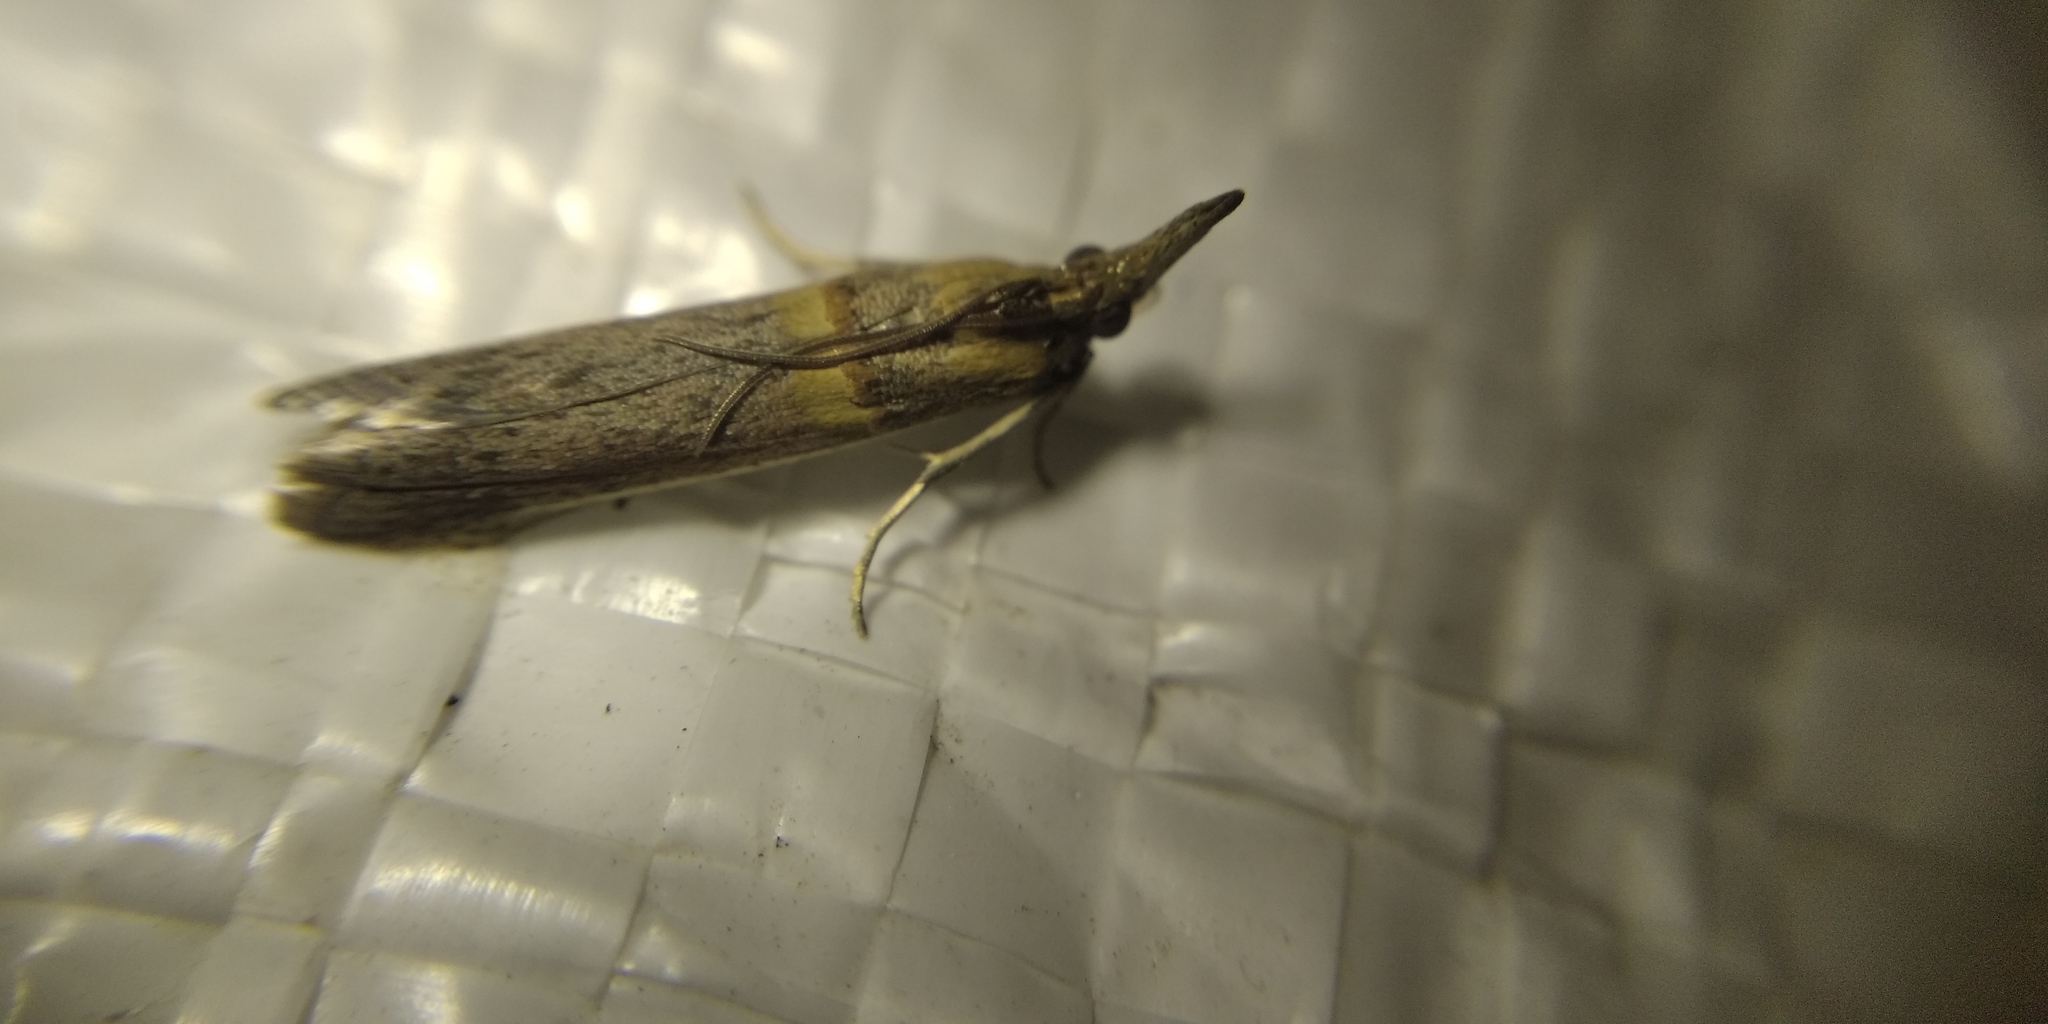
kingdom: Animalia
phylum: Arthropoda
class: Insecta
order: Lepidoptera
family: Pyralidae
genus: Etiella
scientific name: Etiella zinckenella
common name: Gold-banded etiella moth
